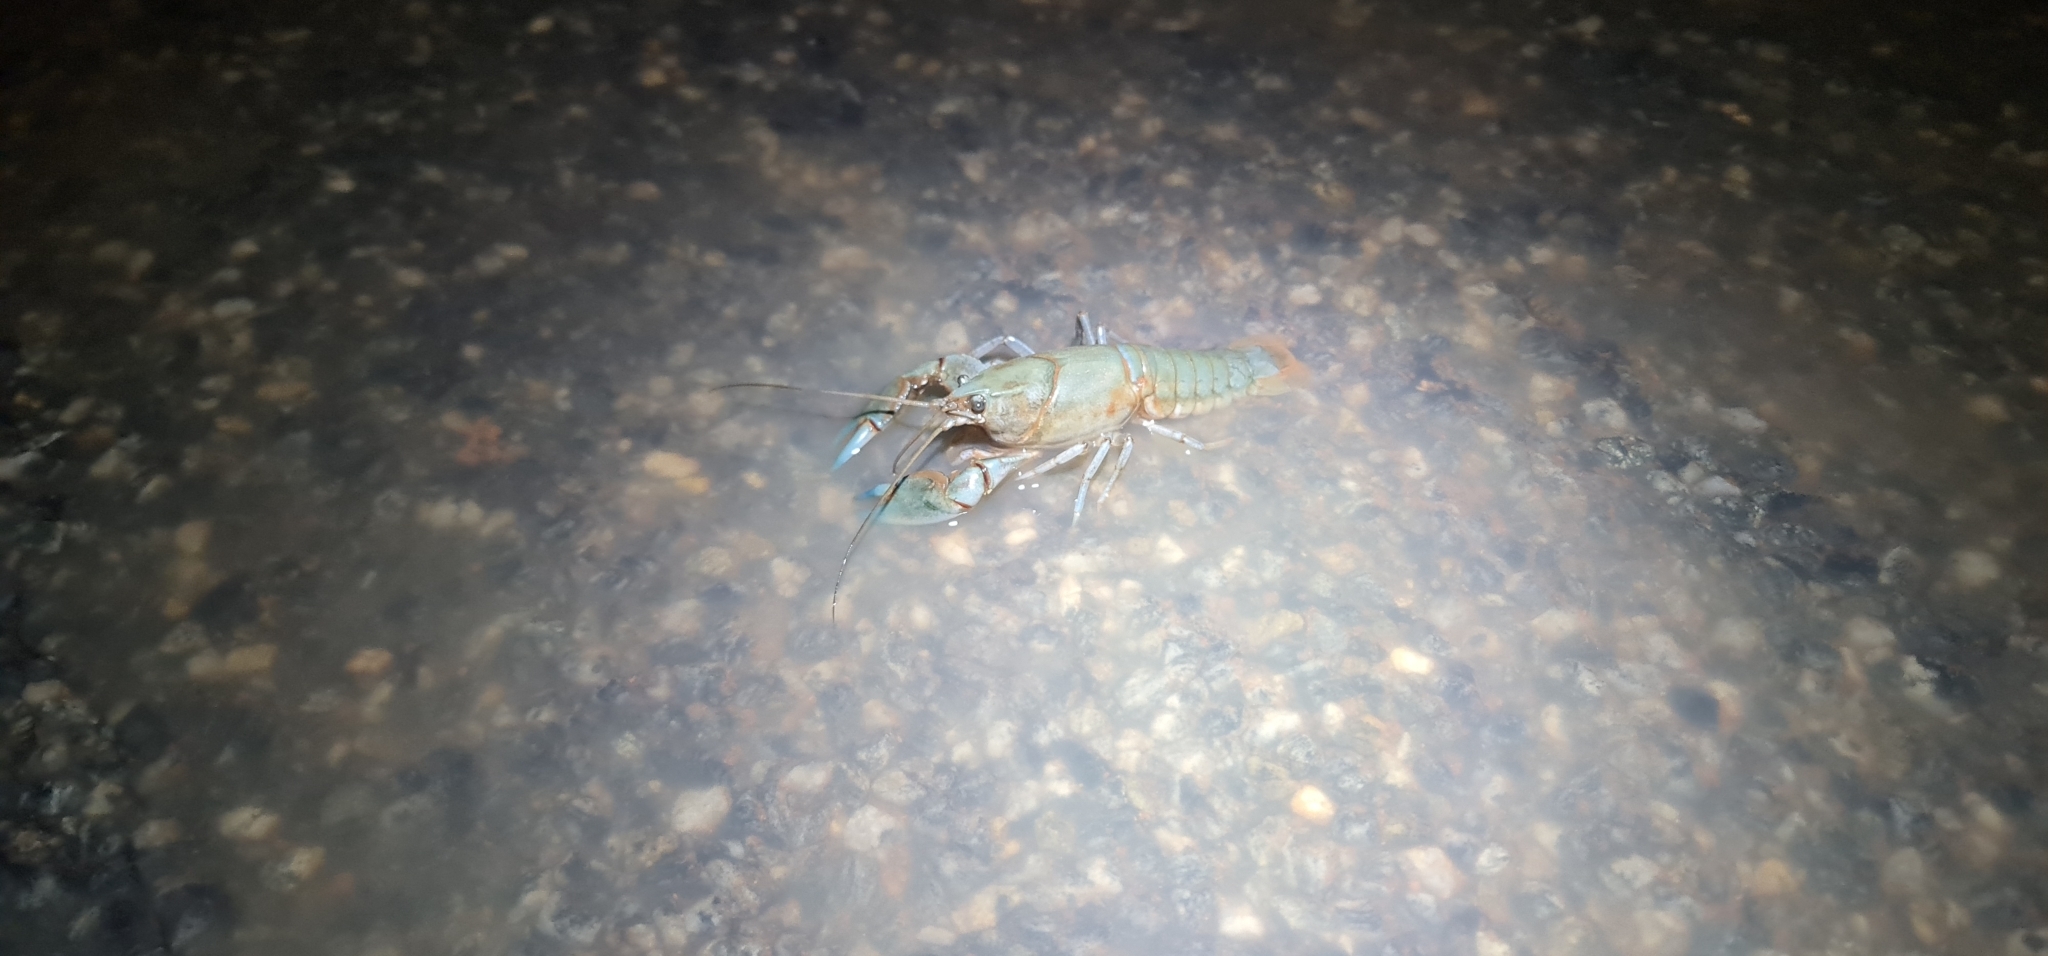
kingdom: Animalia
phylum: Arthropoda
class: Malacostraca
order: Decapoda
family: Parastacidae
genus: Cherax
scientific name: Cherax destructor
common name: Yabby
